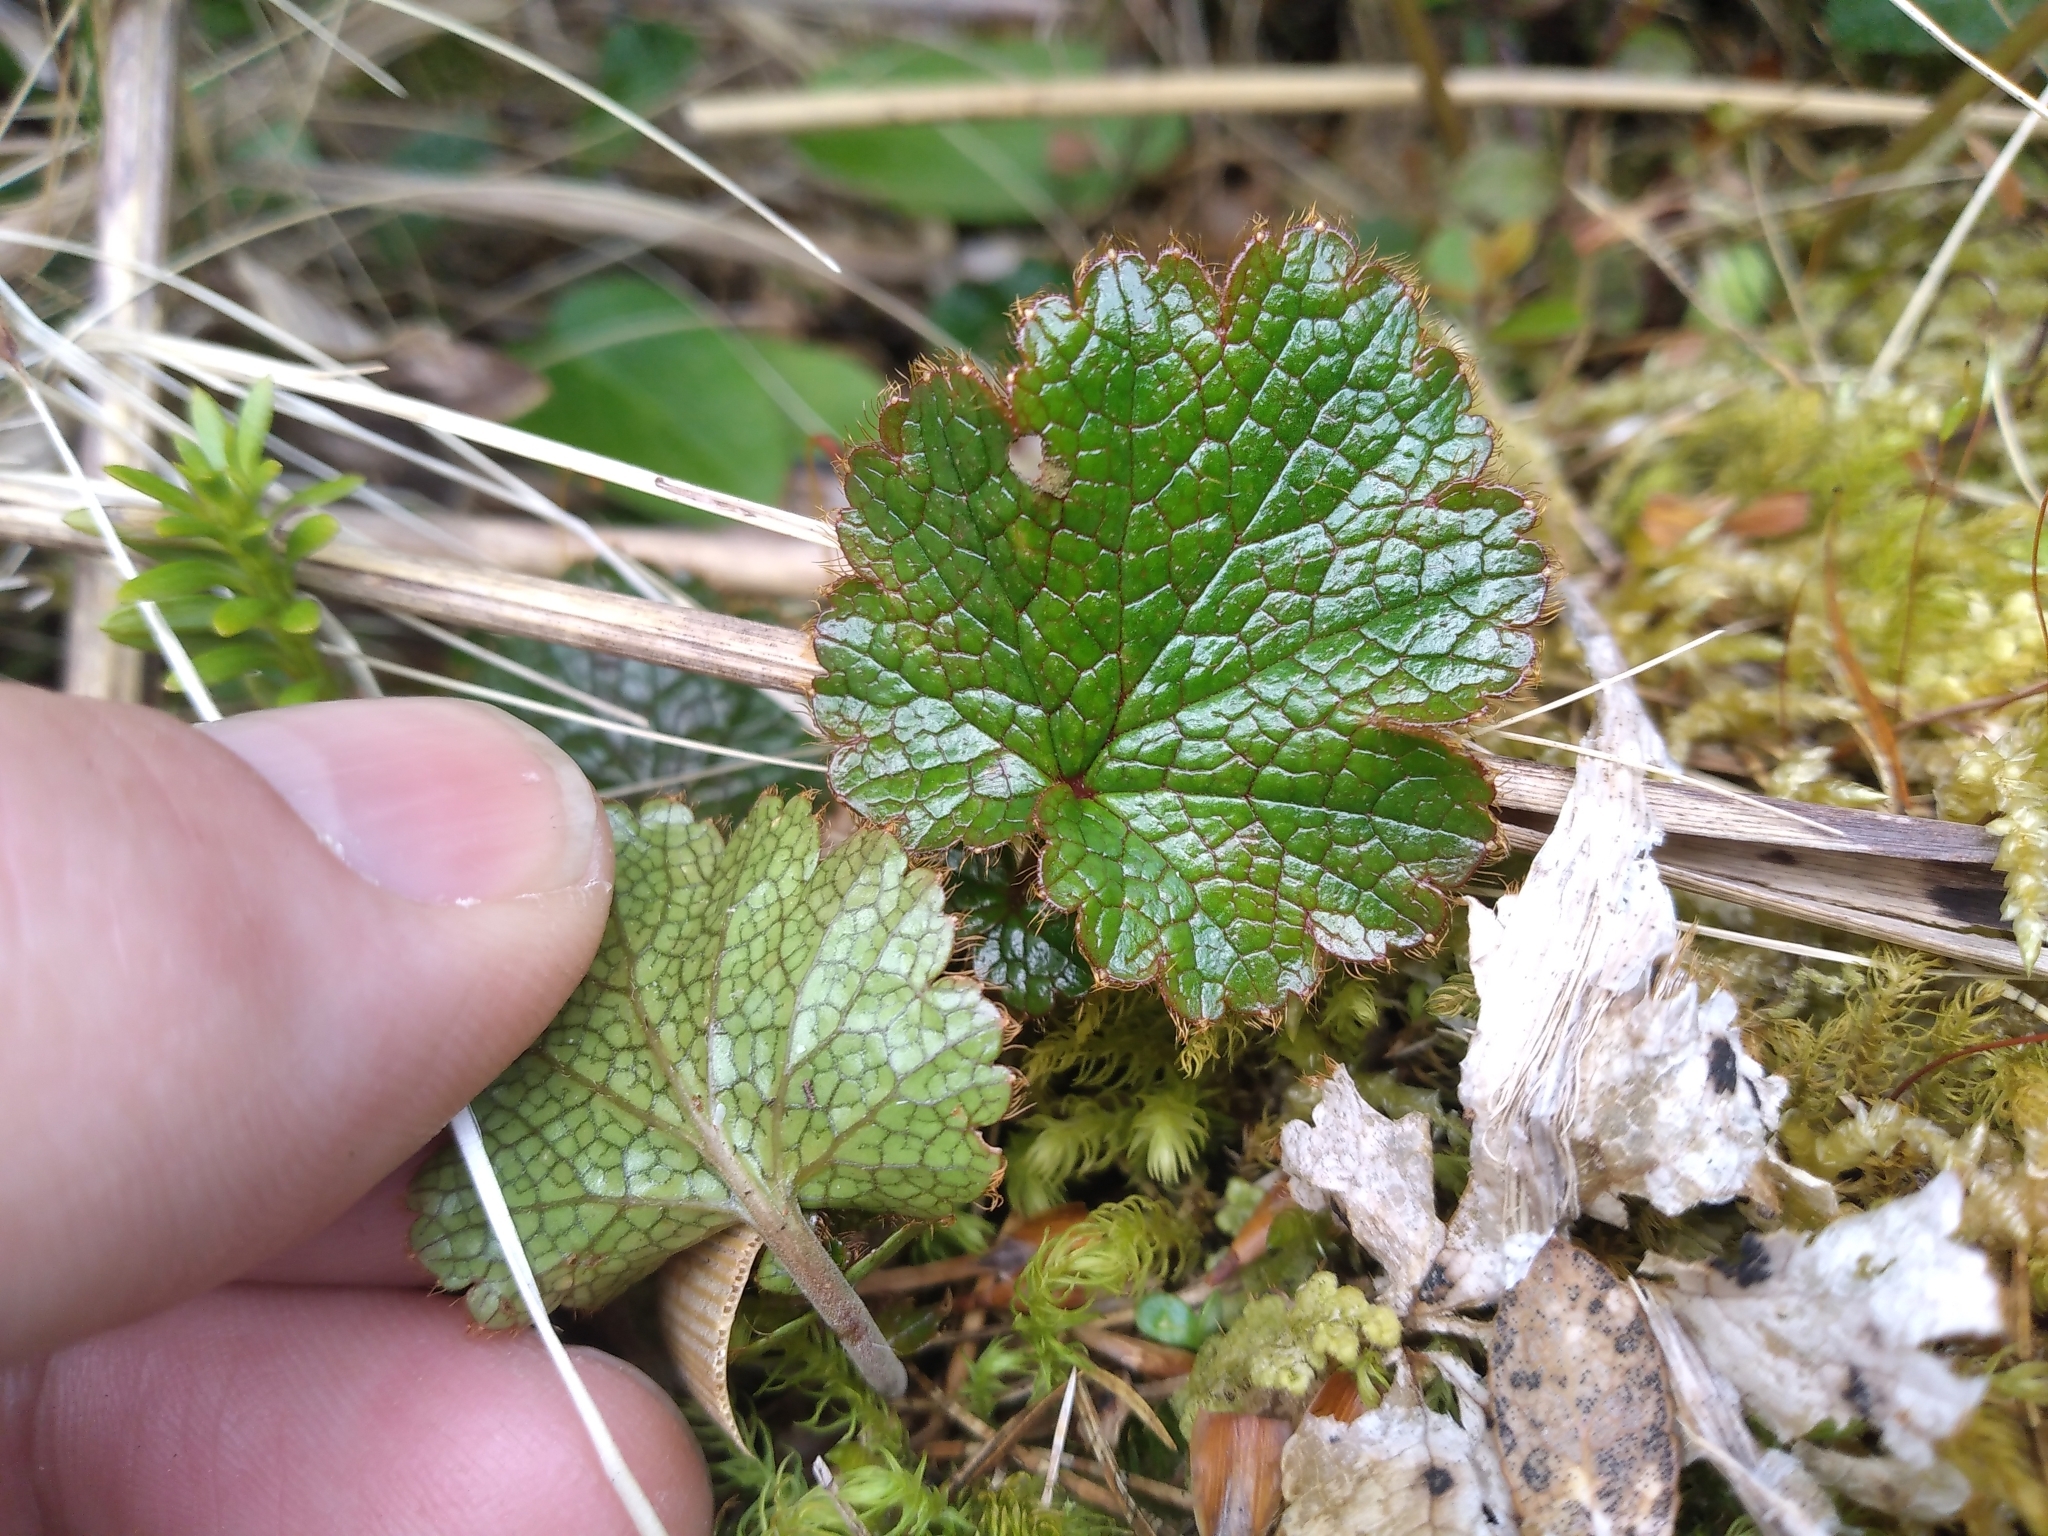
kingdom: Plantae
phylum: Tracheophyta
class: Magnoliopsida
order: Rosales
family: Rosaceae
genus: Geum
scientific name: Geum uniflorum
